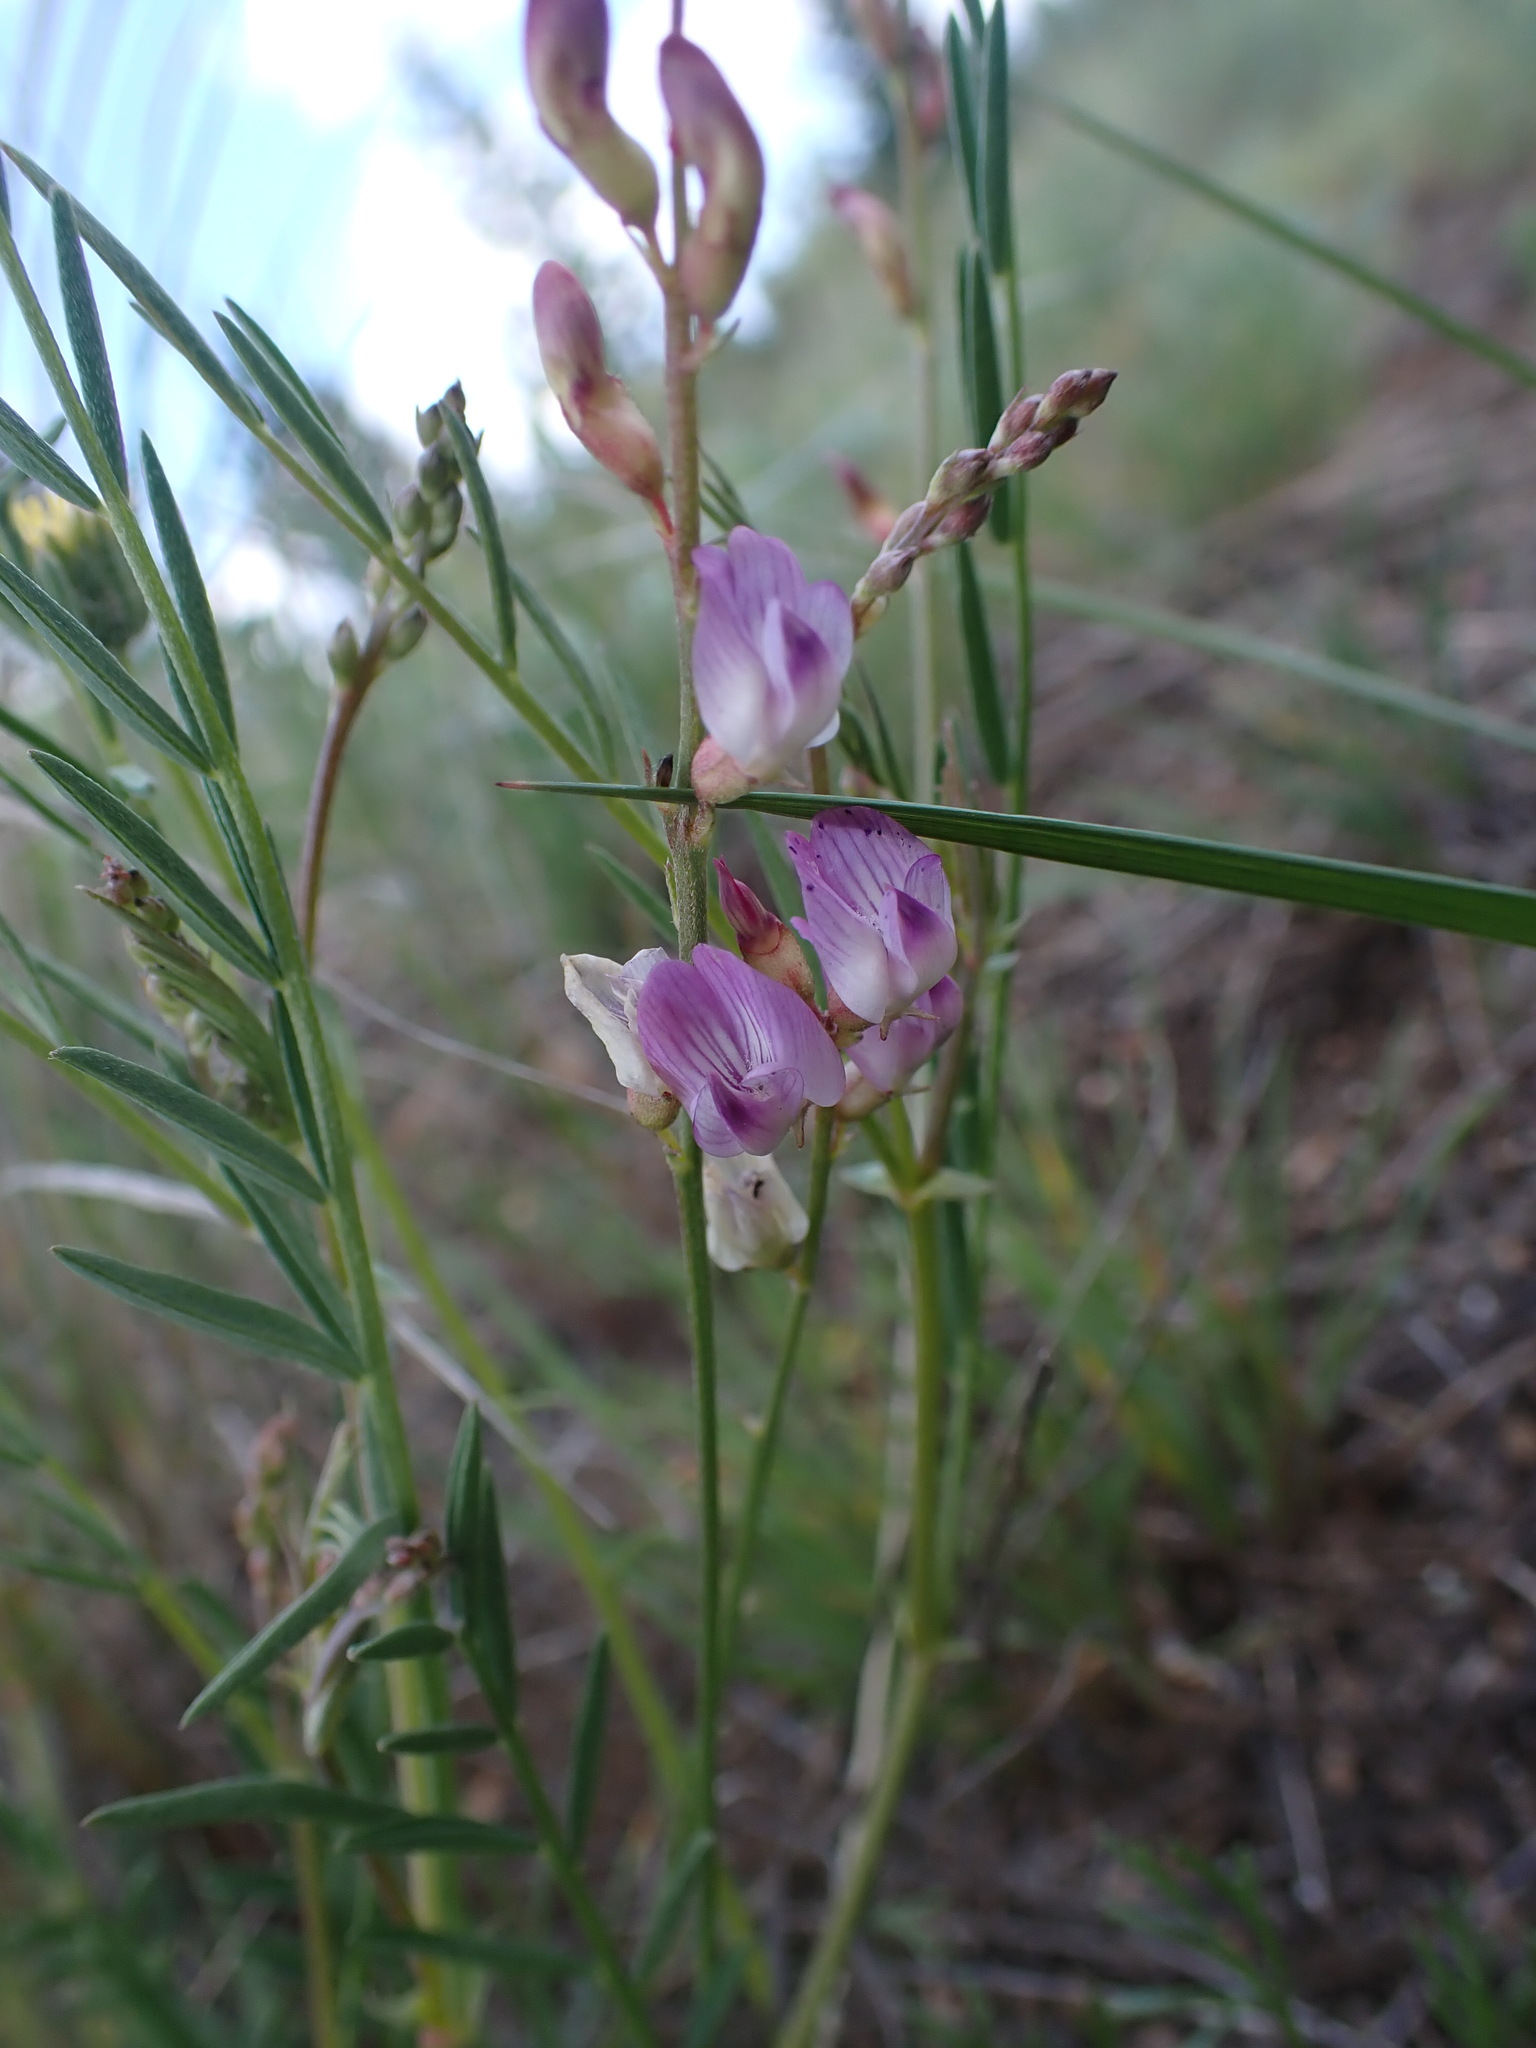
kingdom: Plantae
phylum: Tracheophyta
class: Magnoliopsida
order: Fabales
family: Fabaceae
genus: Astragalus
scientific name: Astragalus miser
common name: Timber milkvetch
